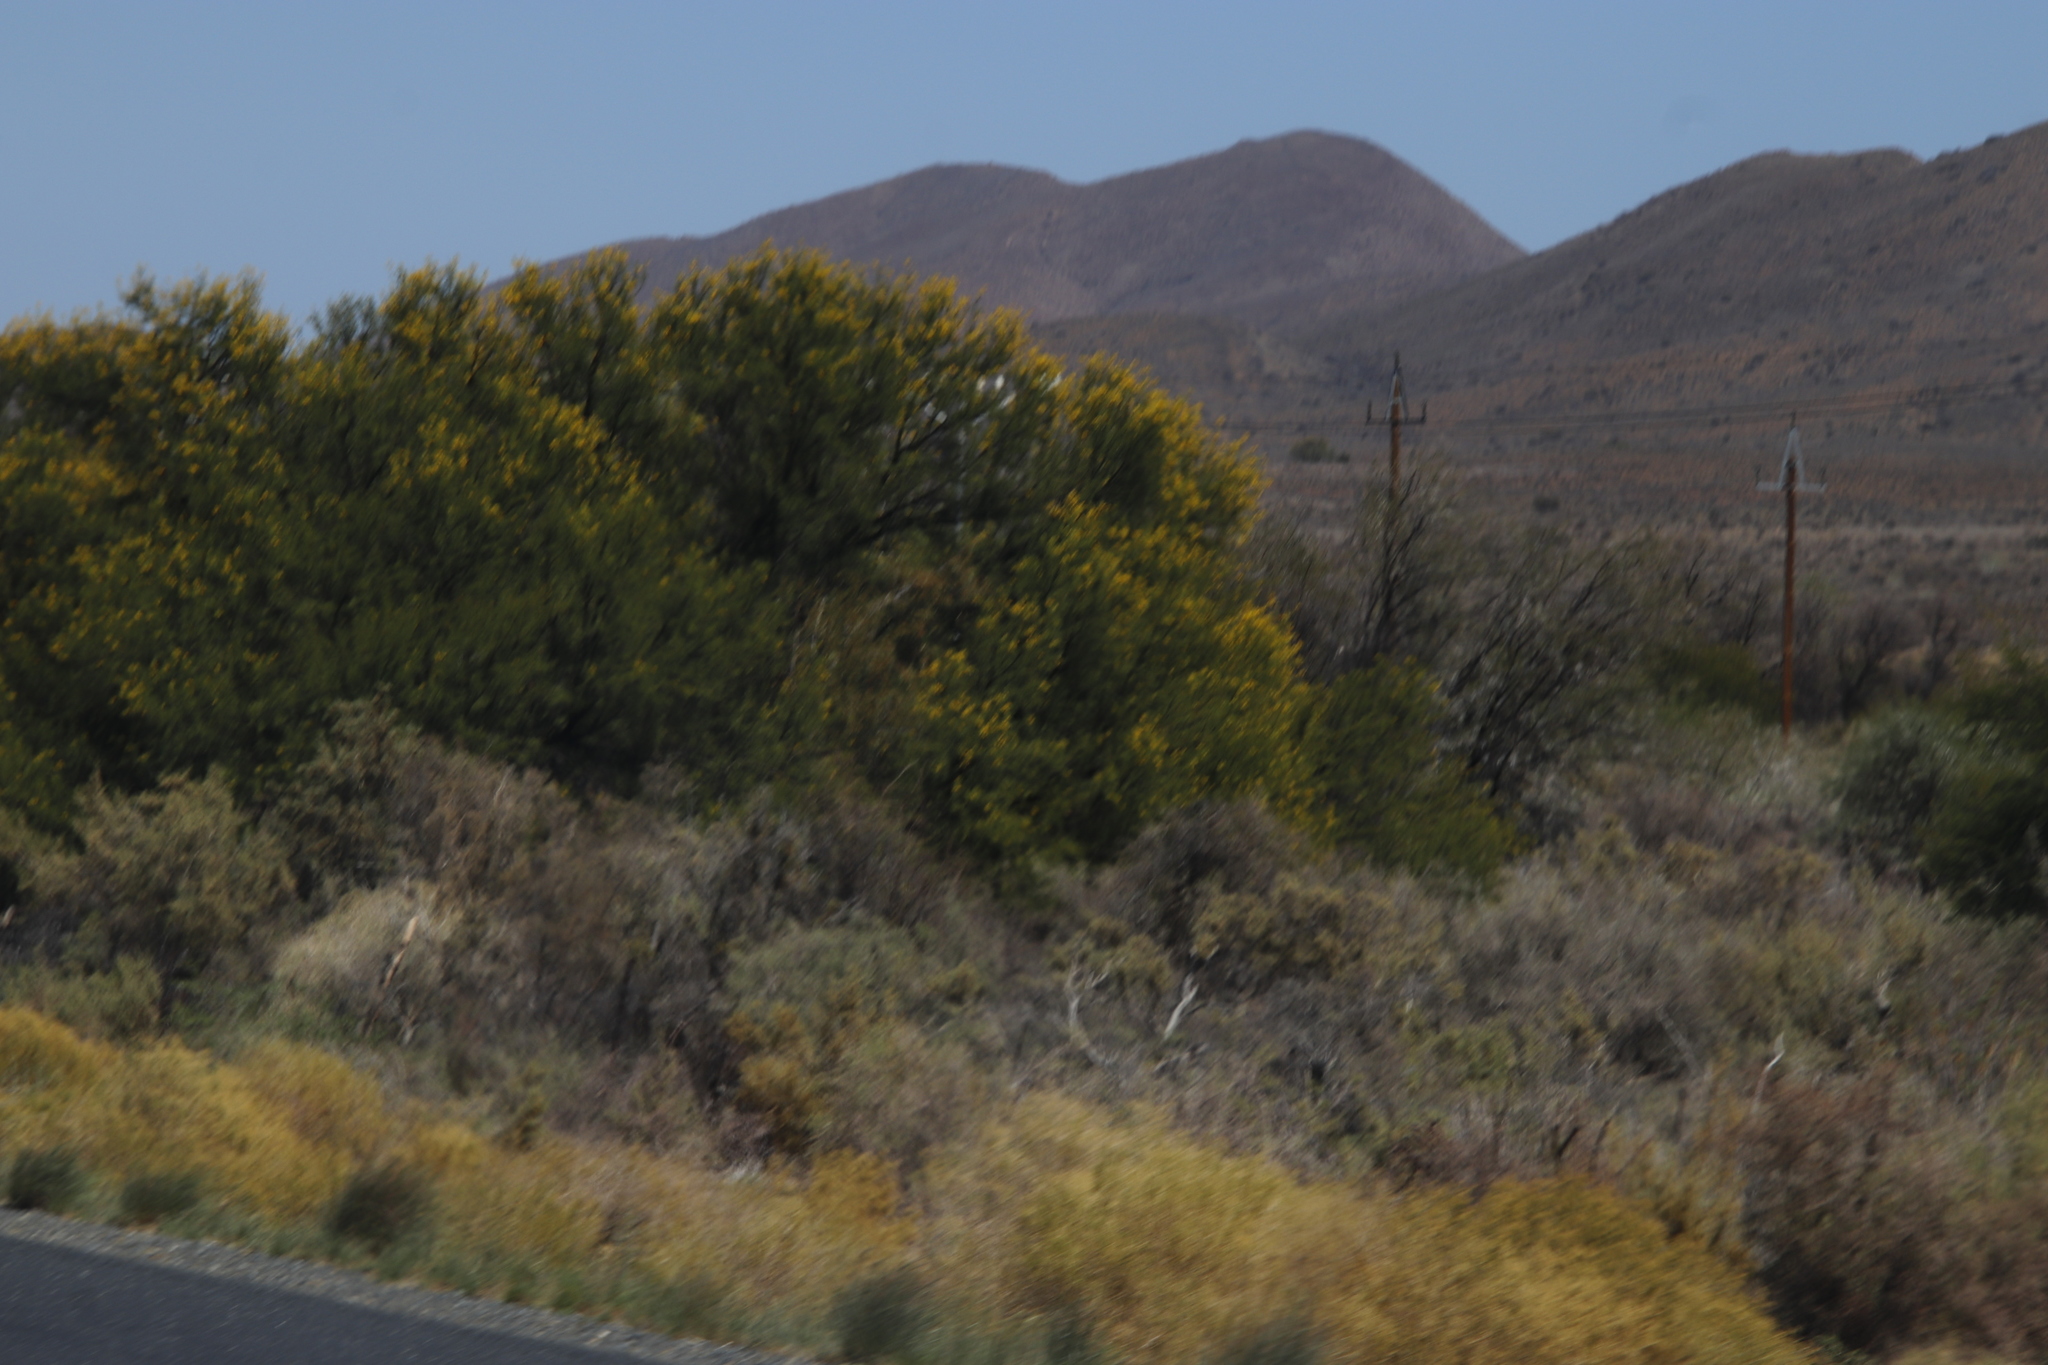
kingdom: Plantae
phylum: Tracheophyta
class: Magnoliopsida
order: Fabales
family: Fabaceae
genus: Vachellia
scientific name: Vachellia karroo
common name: Sweet thorn
